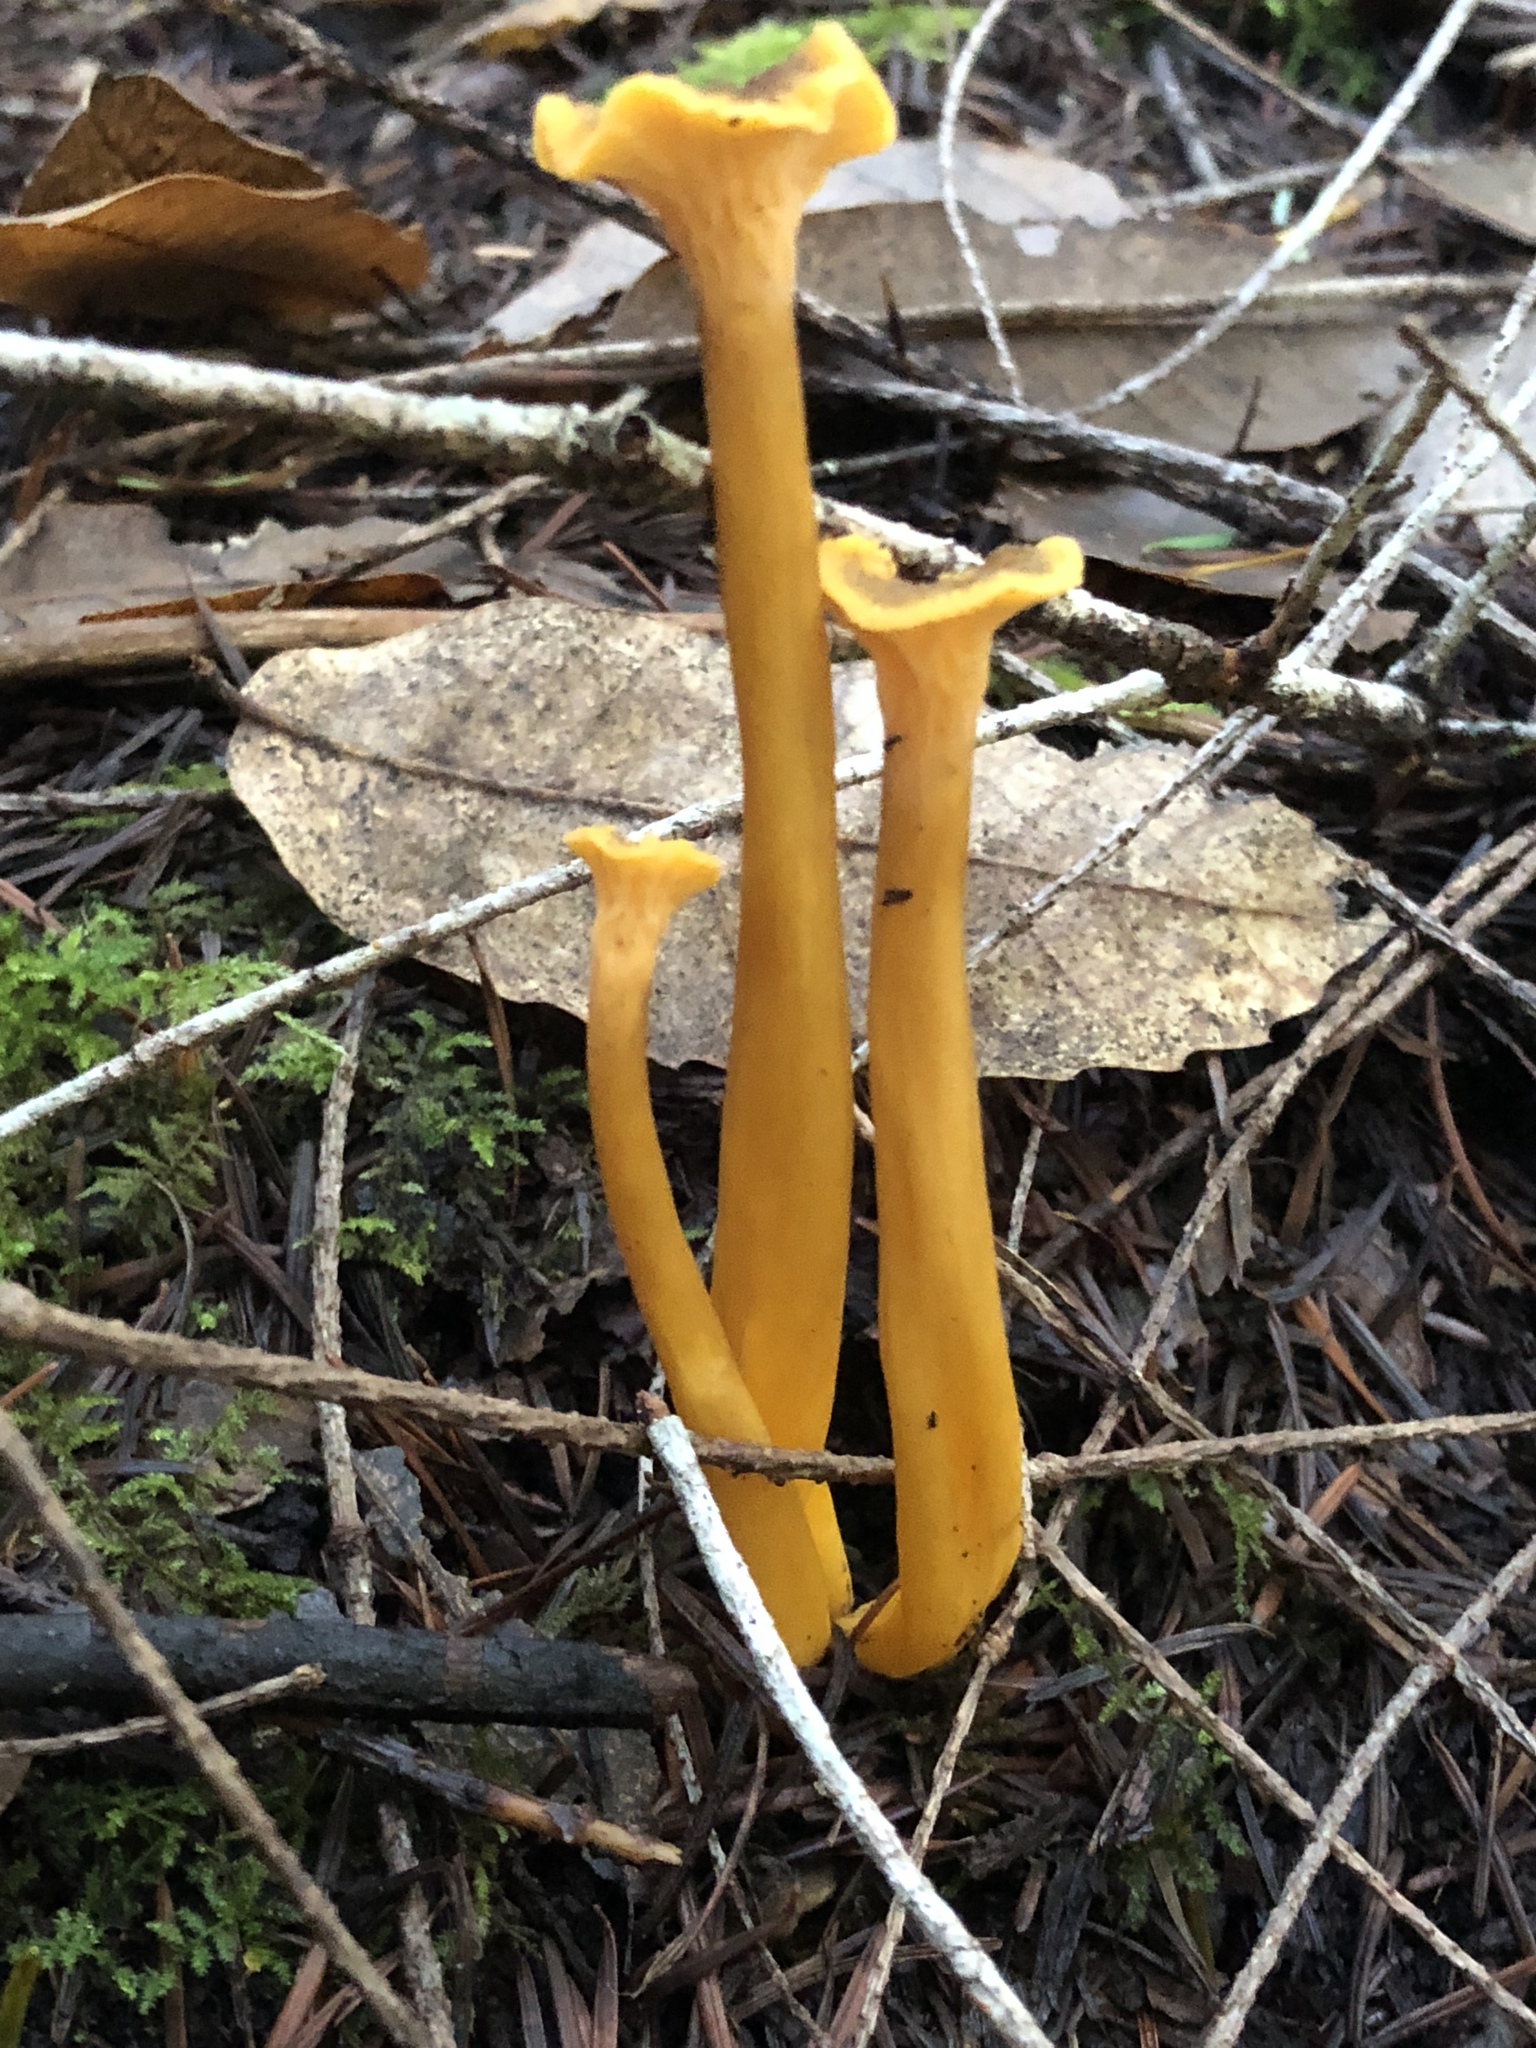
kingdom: Fungi
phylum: Basidiomycota
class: Agaricomycetes
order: Cantharellales
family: Hydnaceae
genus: Craterellus
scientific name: Craterellus tubaeformis
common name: Yellowfoot
